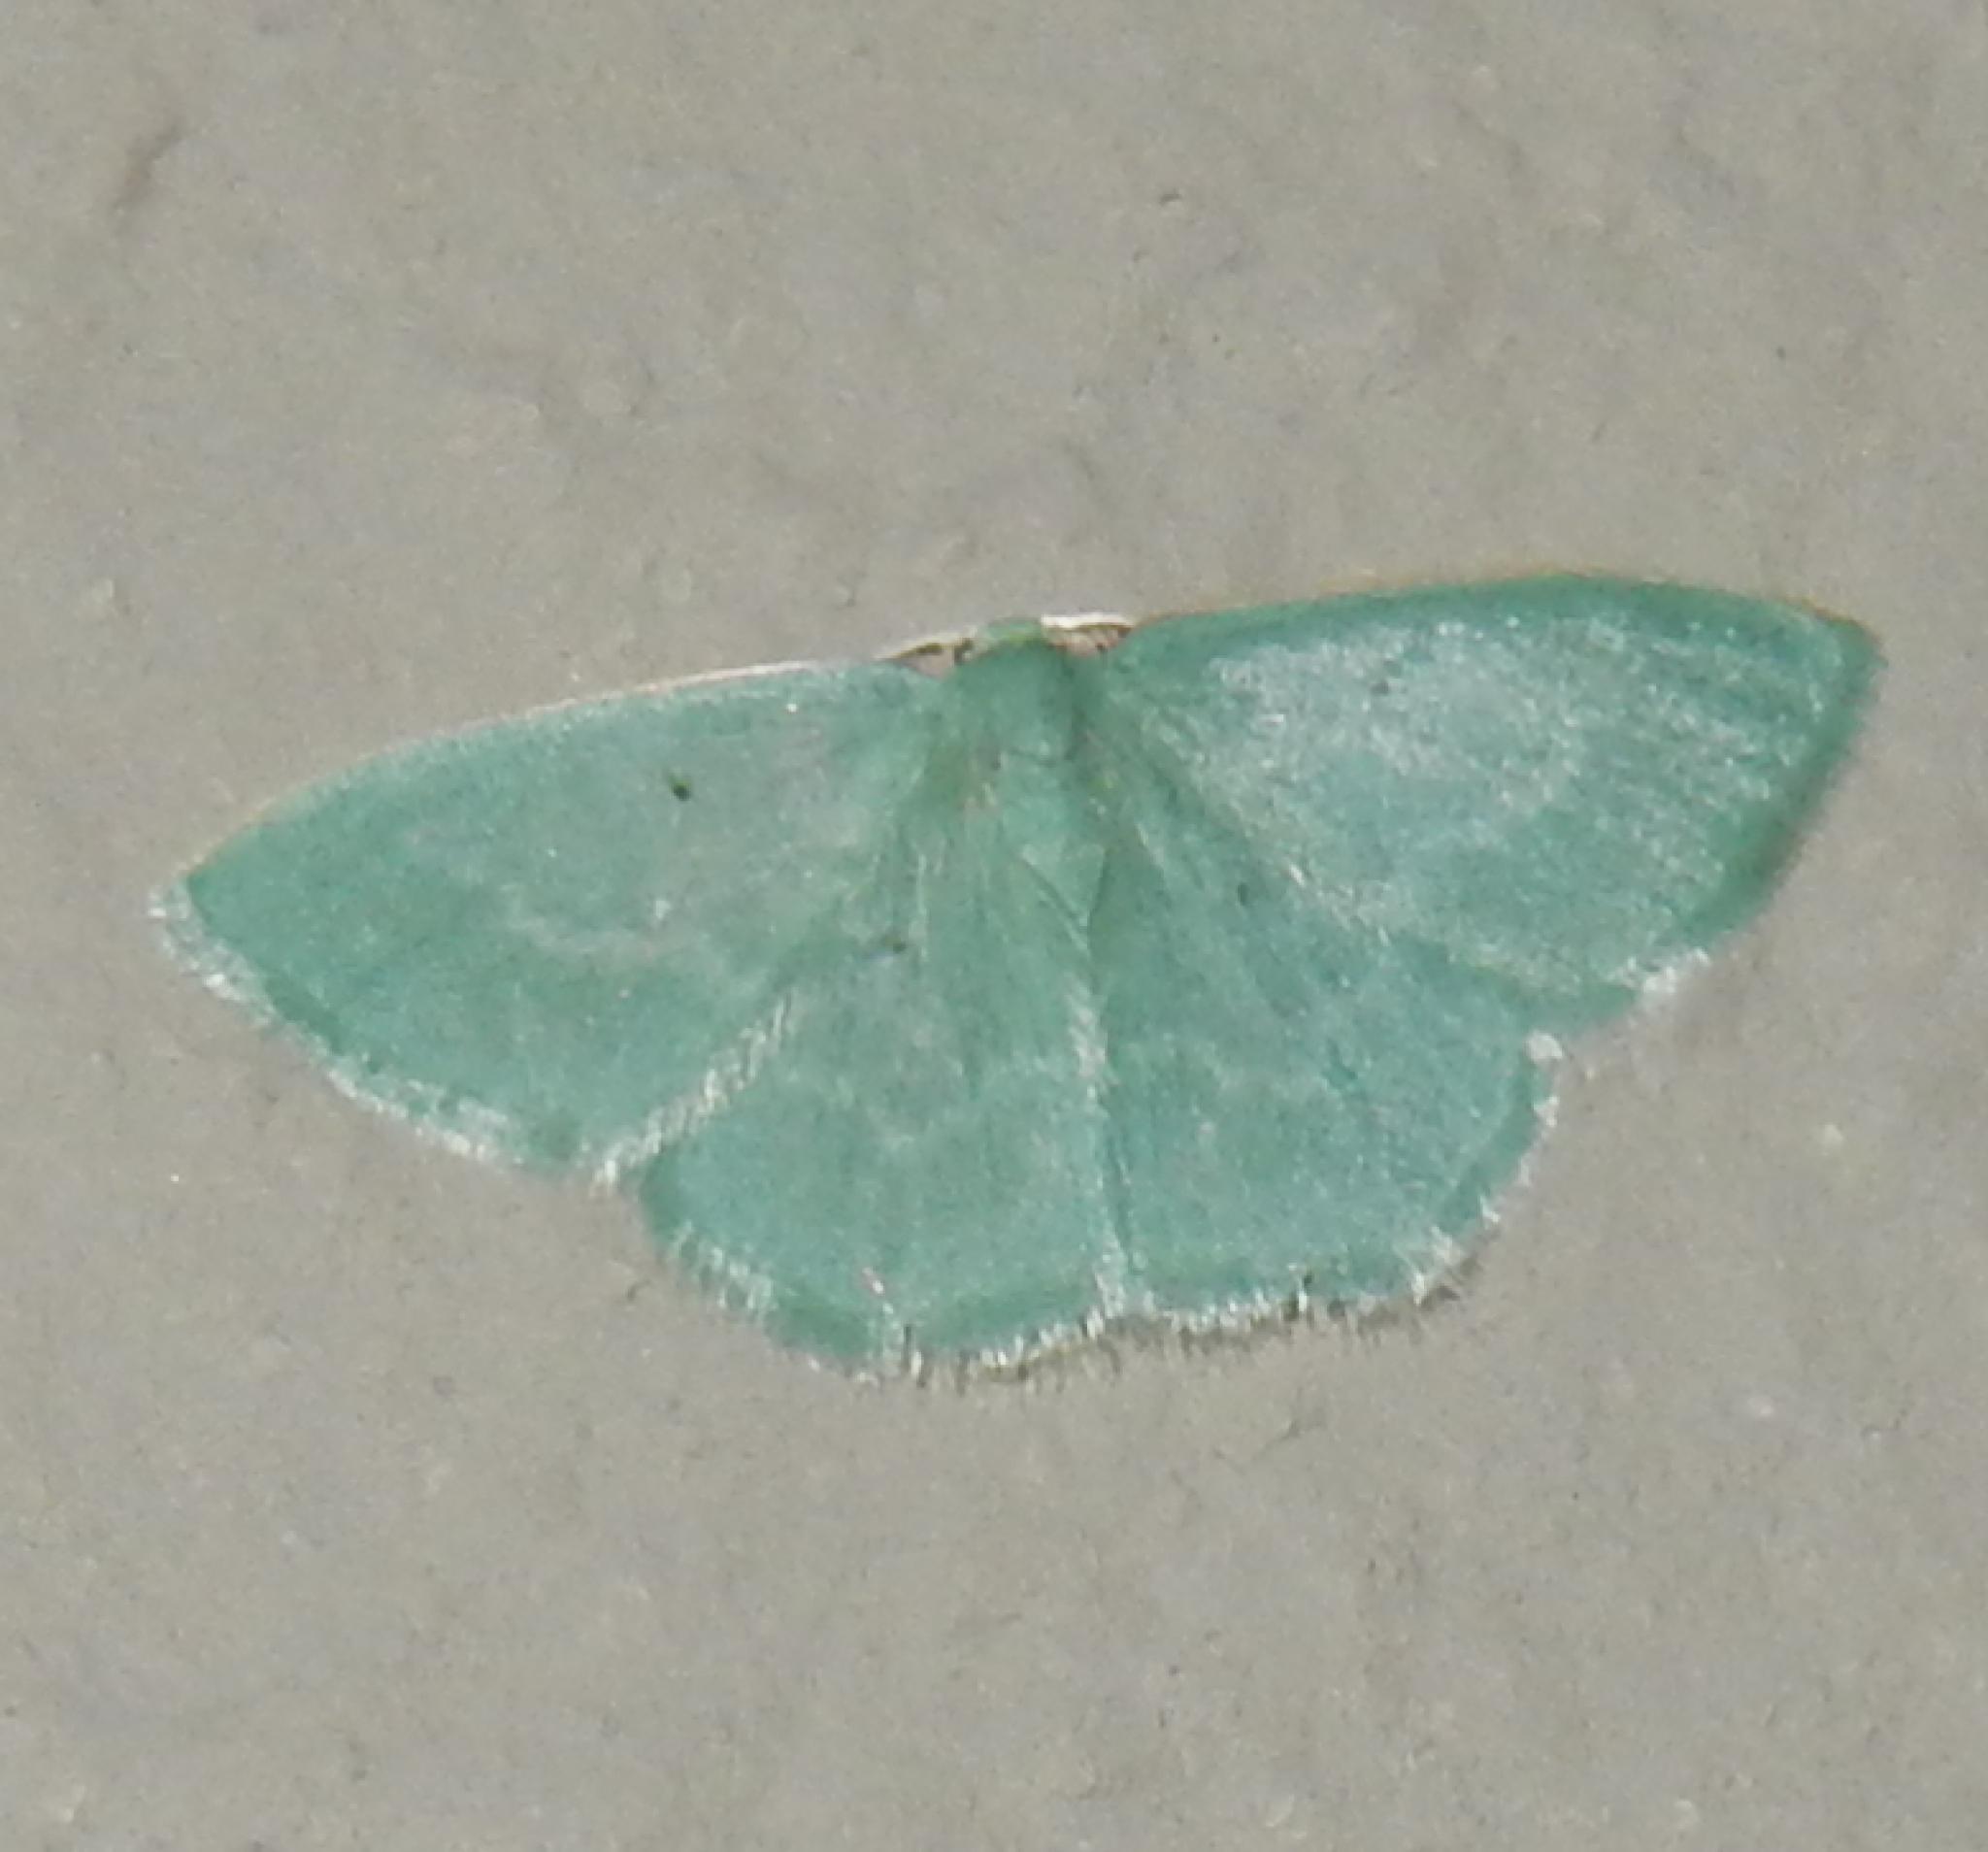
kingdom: Animalia
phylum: Arthropoda
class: Insecta
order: Lepidoptera
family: Geometridae
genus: Comostolopsis
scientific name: Comostolopsis capensis
